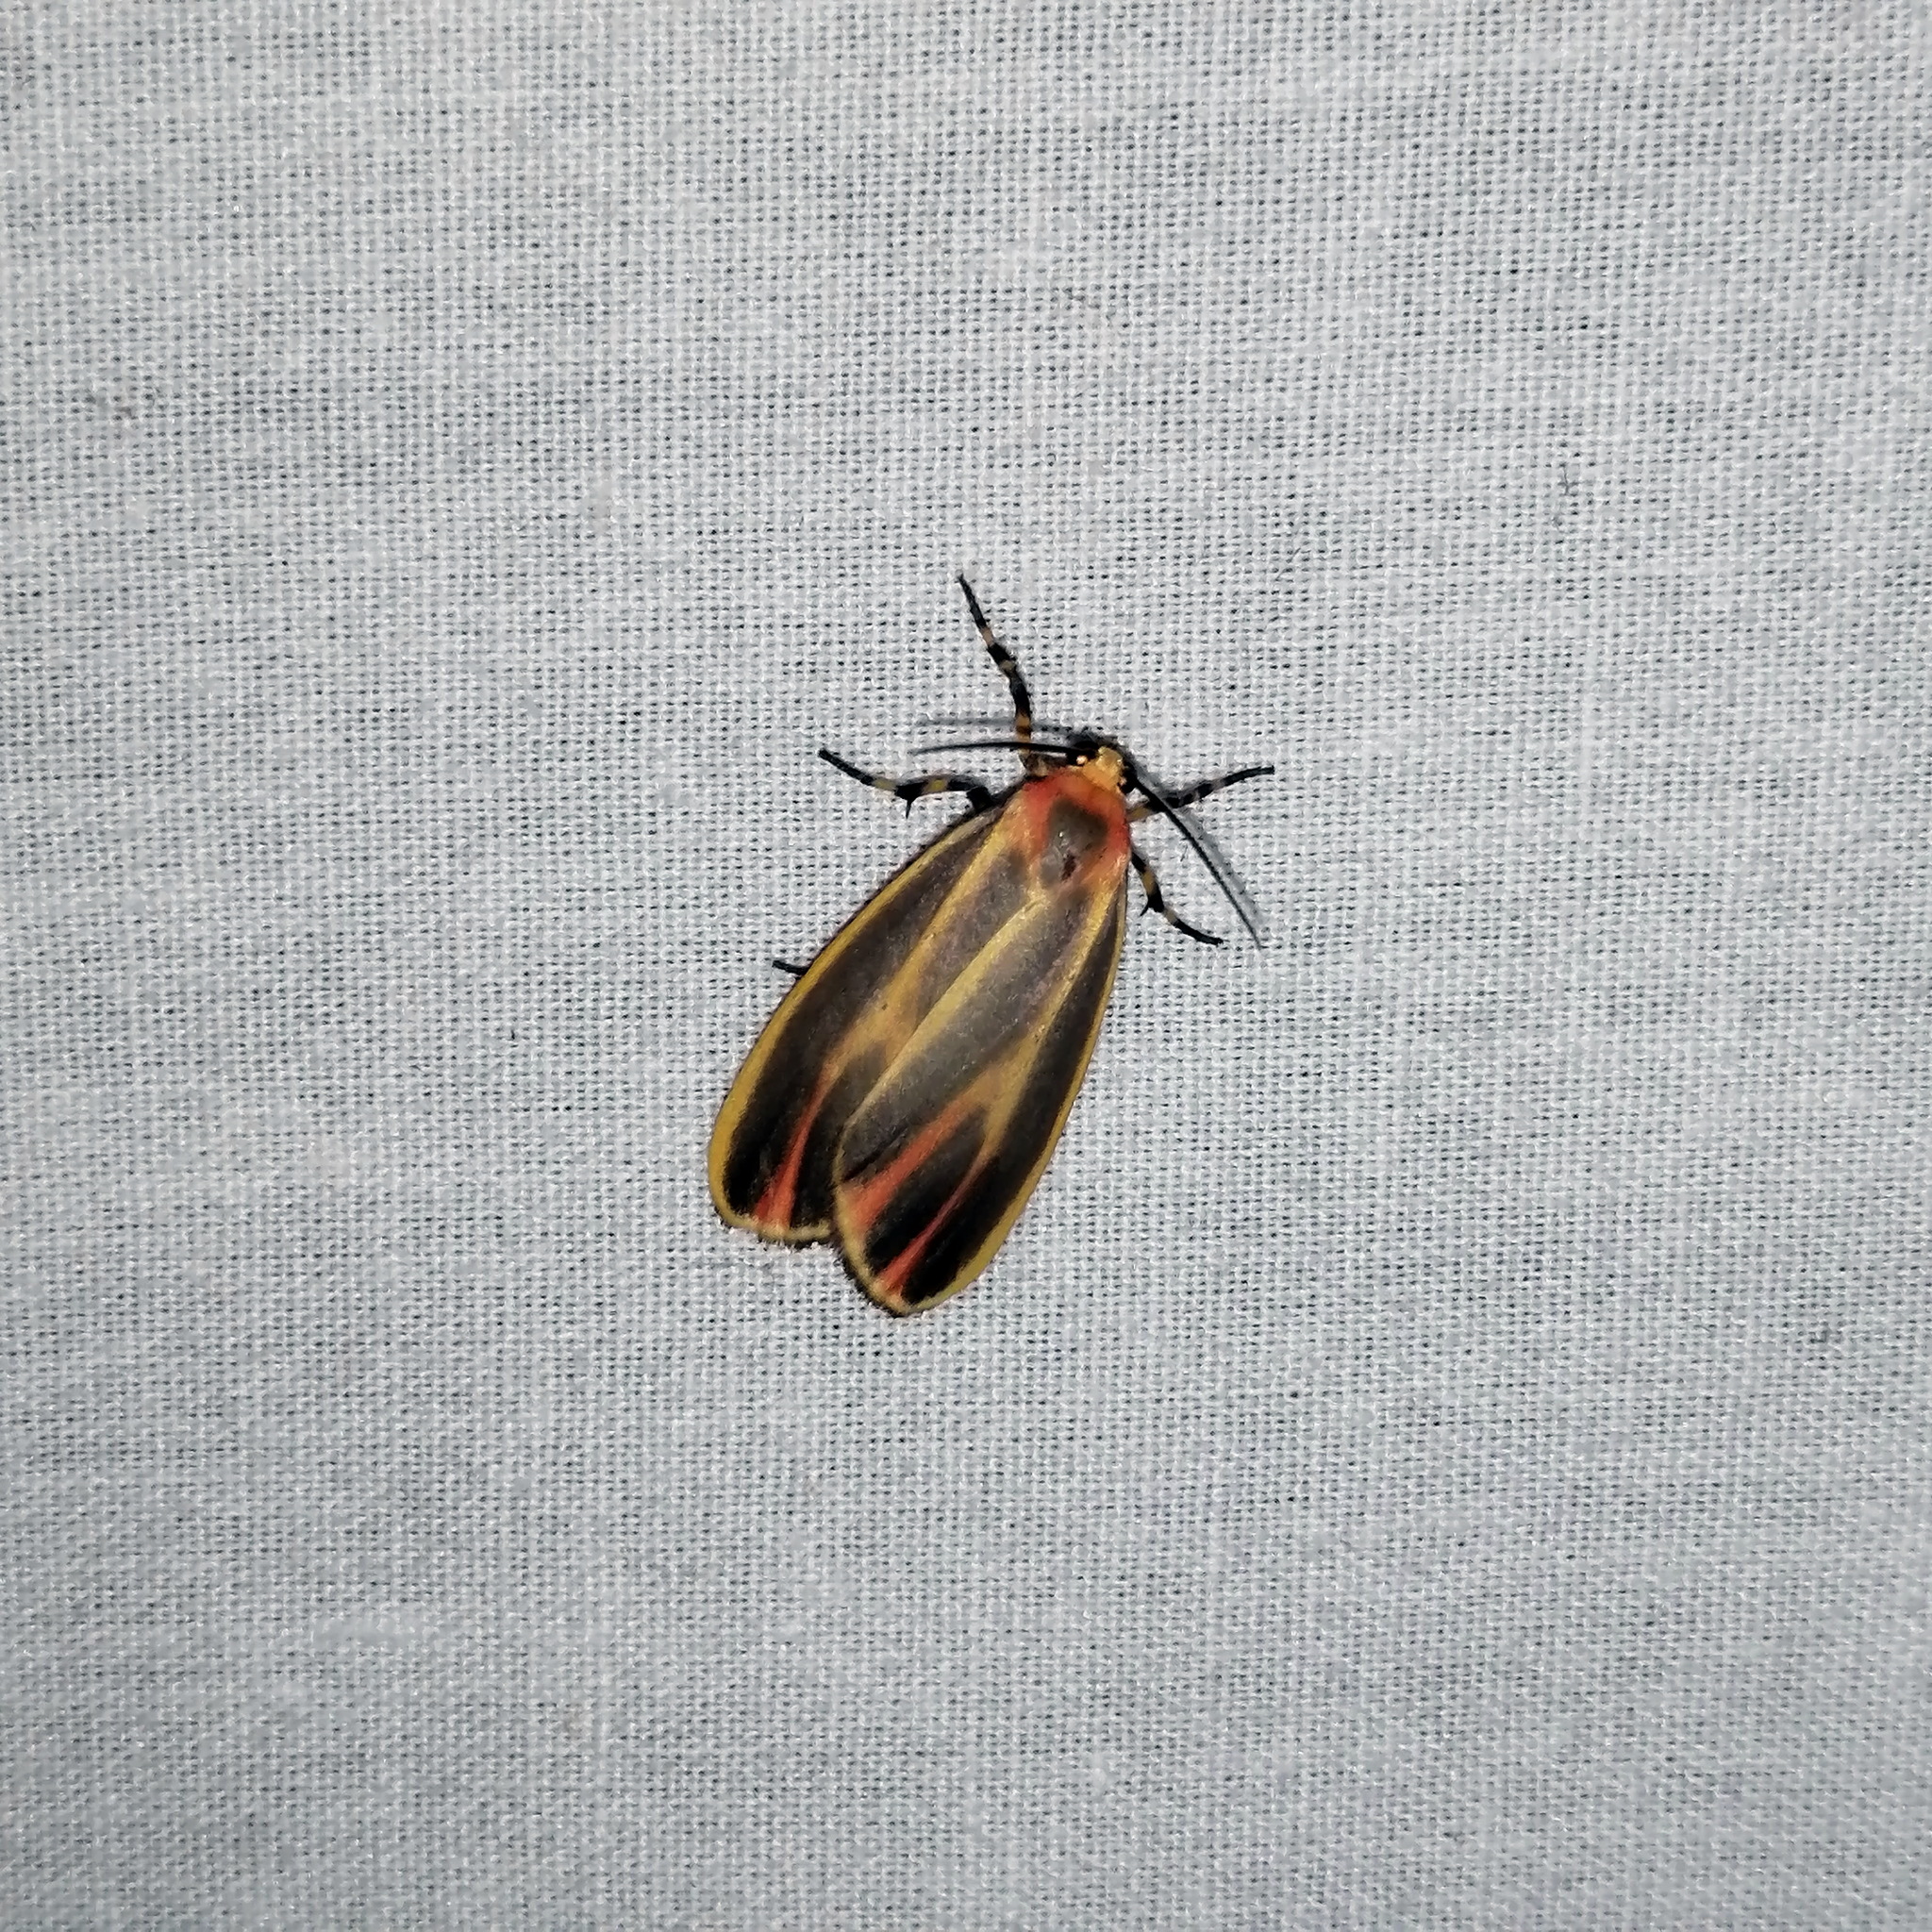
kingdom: Animalia
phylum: Arthropoda
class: Insecta
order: Lepidoptera
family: Erebidae
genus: Hypoprepia
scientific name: Hypoprepia fucosa
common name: Painted lichen moth
